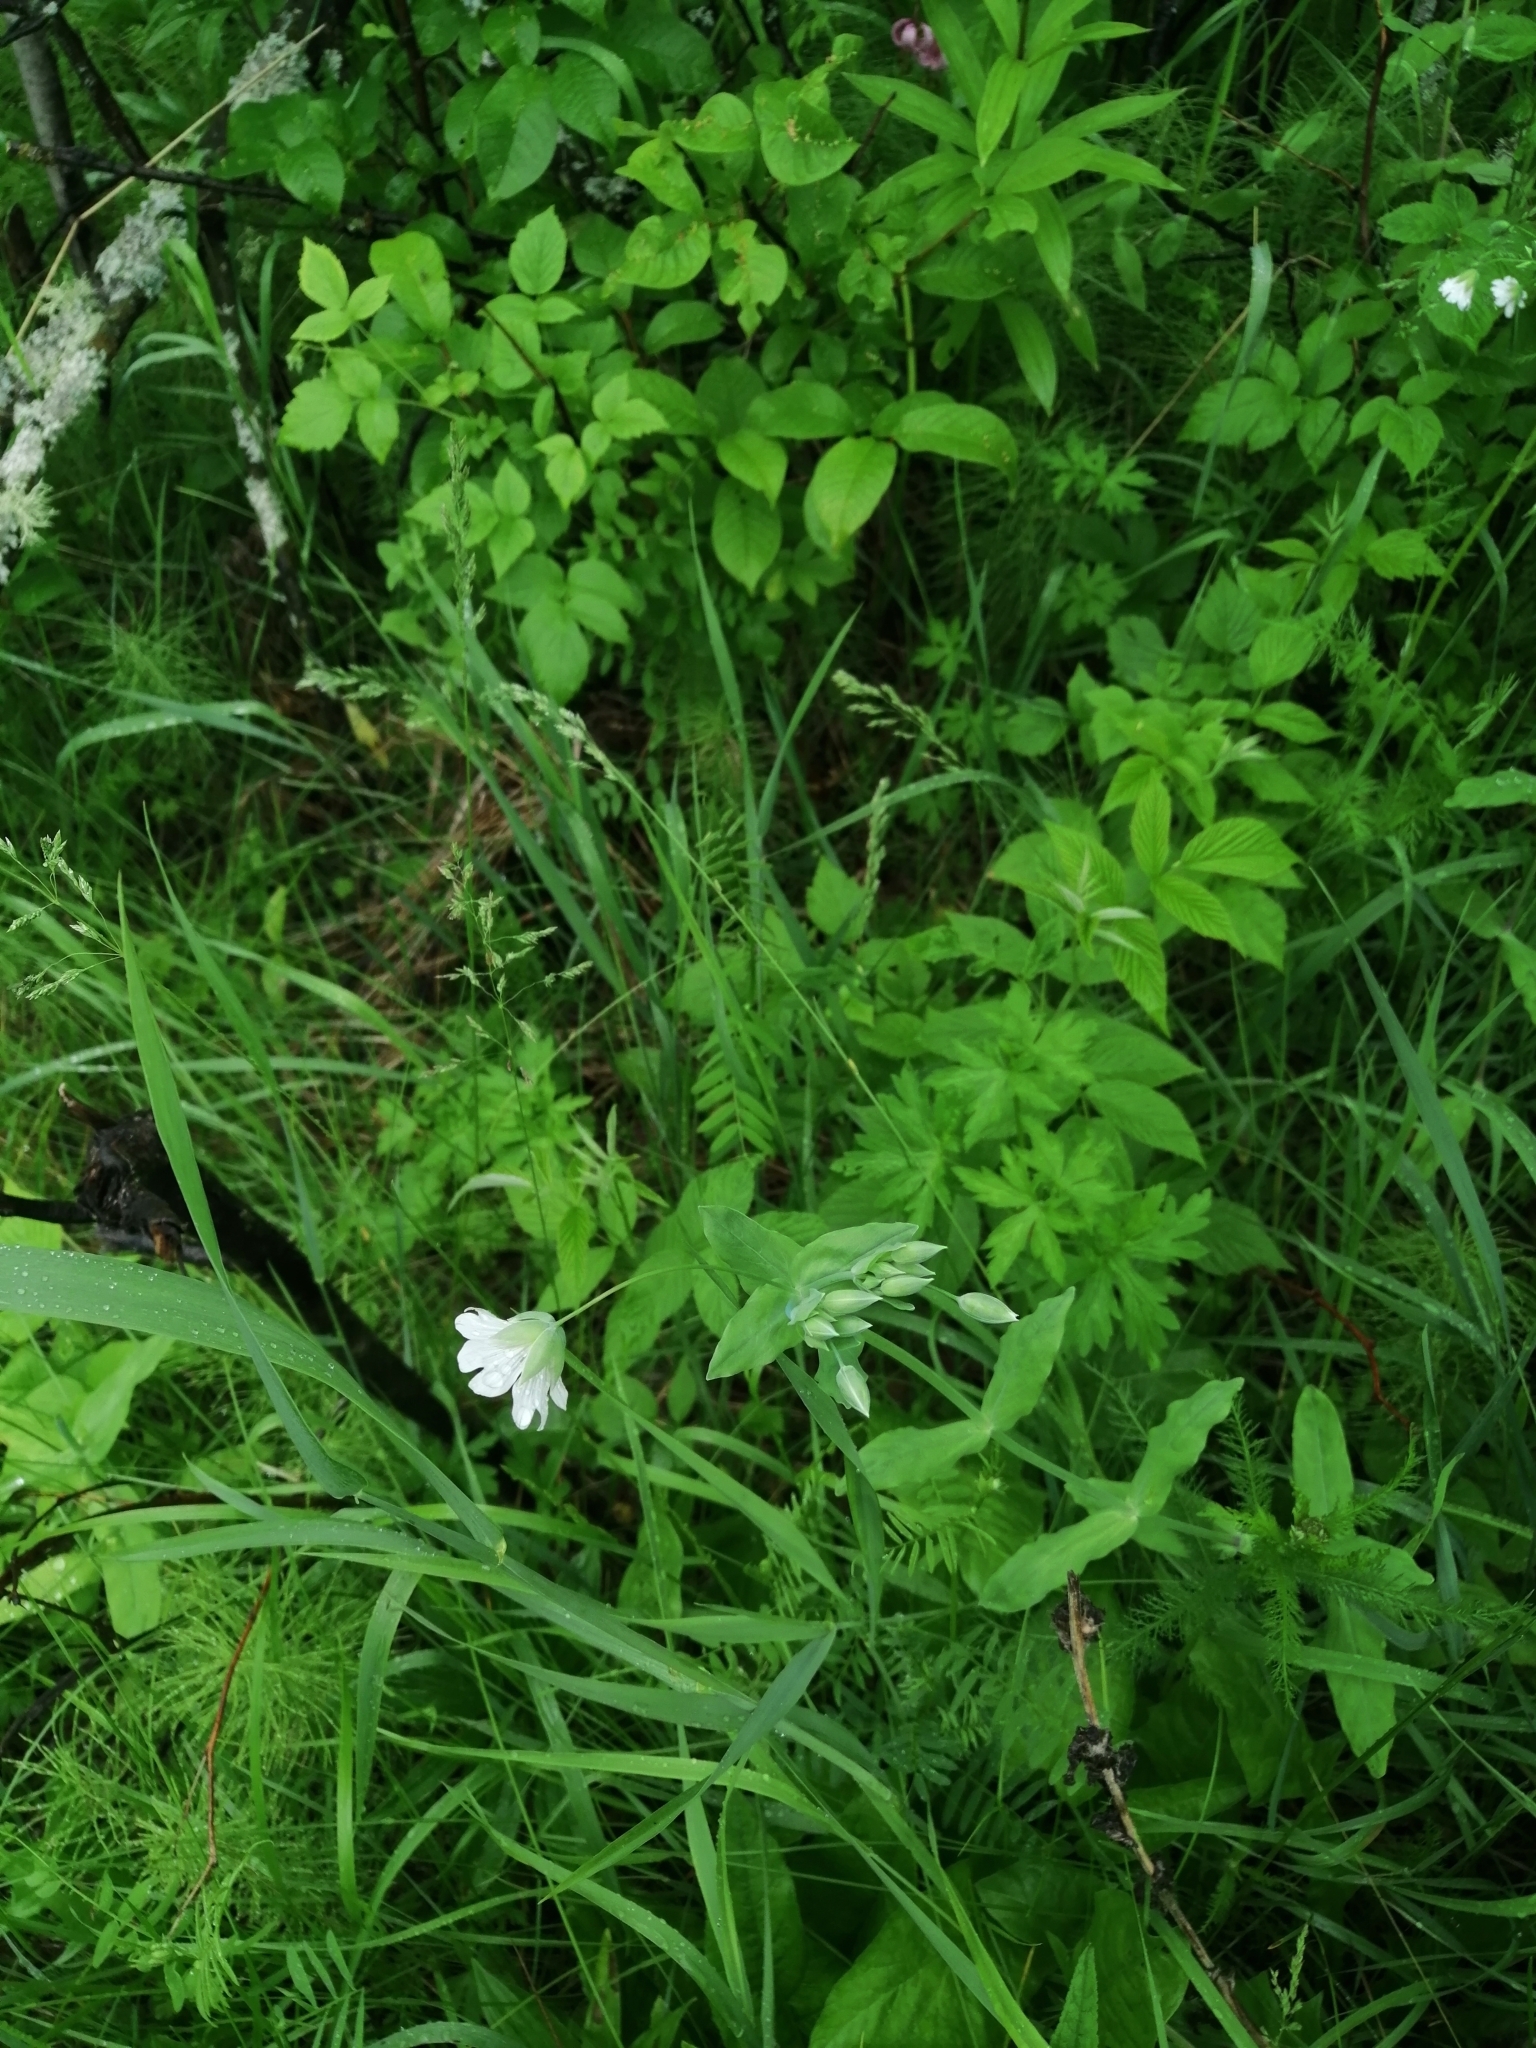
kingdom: Plantae
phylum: Tracheophyta
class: Magnoliopsida
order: Caryophyllales
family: Caryophyllaceae
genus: Cerastium
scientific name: Cerastium davuricum
